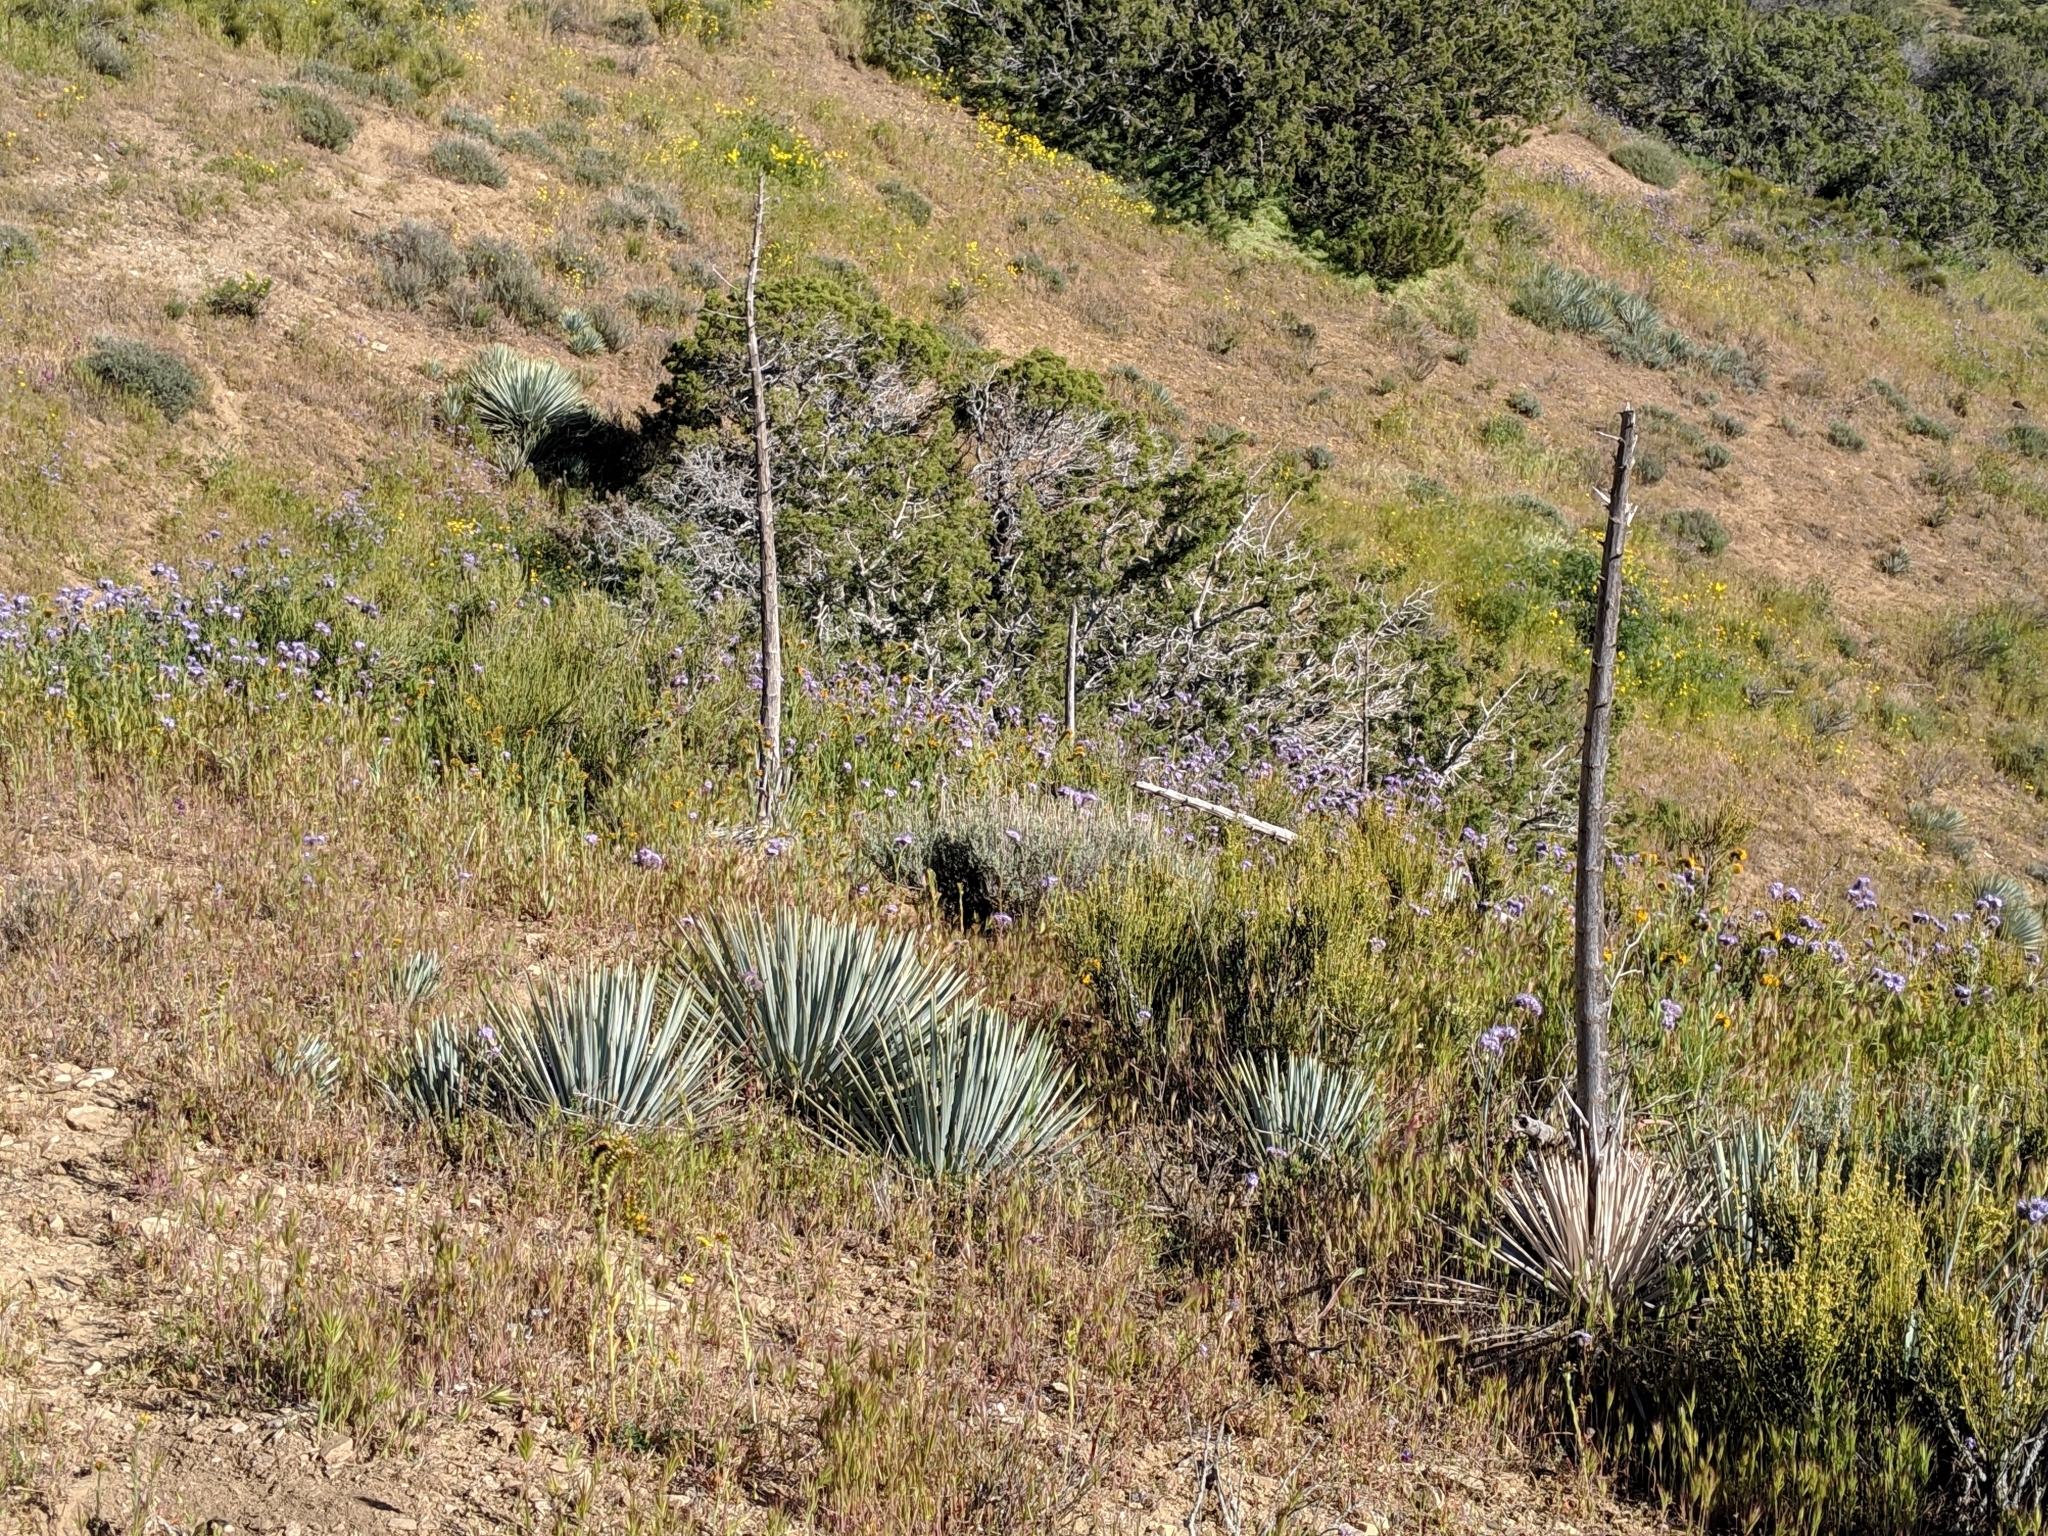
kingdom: Plantae
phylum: Tracheophyta
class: Liliopsida
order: Asparagales
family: Asparagaceae
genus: Hesperoyucca
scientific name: Hesperoyucca whipplei
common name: Our lord's-candle
